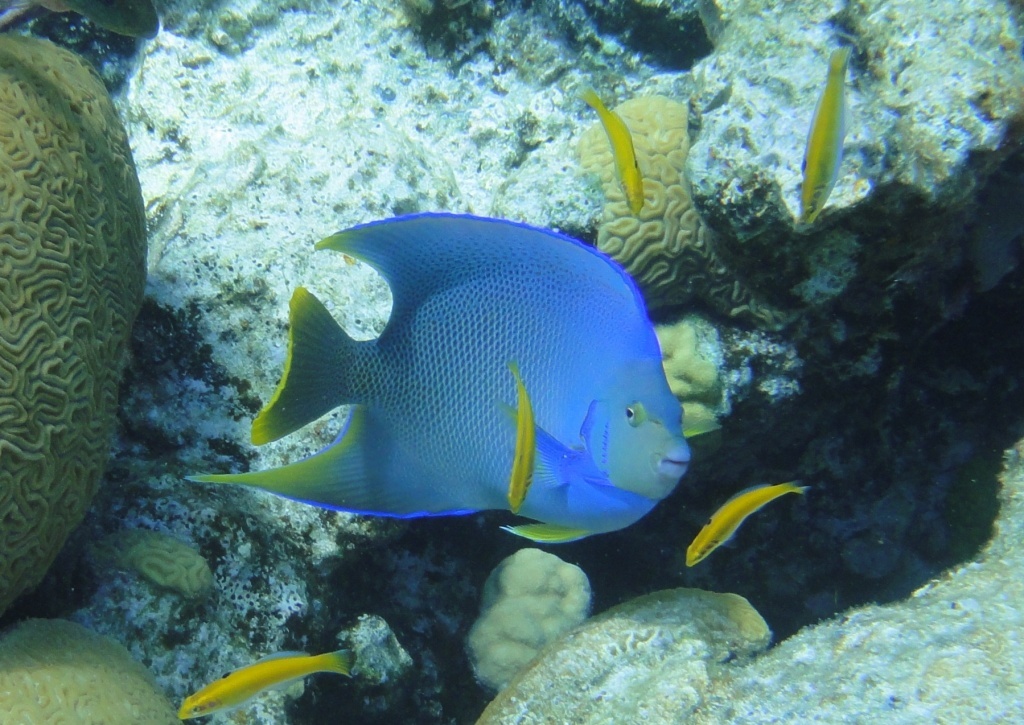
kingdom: Animalia
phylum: Chordata
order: Perciformes
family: Pomacanthidae
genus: Holacanthus
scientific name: Holacanthus bermudensis
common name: Blue angelfish
